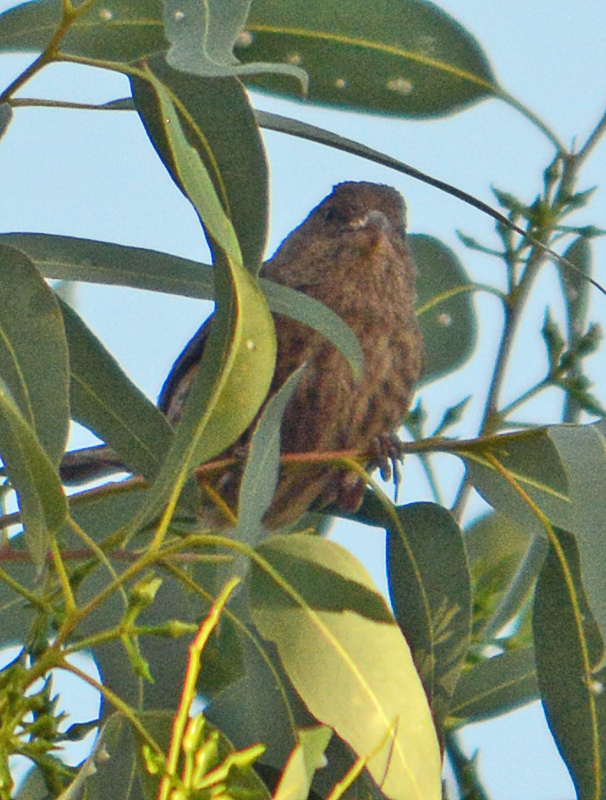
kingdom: Animalia
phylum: Chordata
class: Aves
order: Passeriformes
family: Fringillidae
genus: Haemorhous
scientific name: Haemorhous mexicanus
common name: House finch
